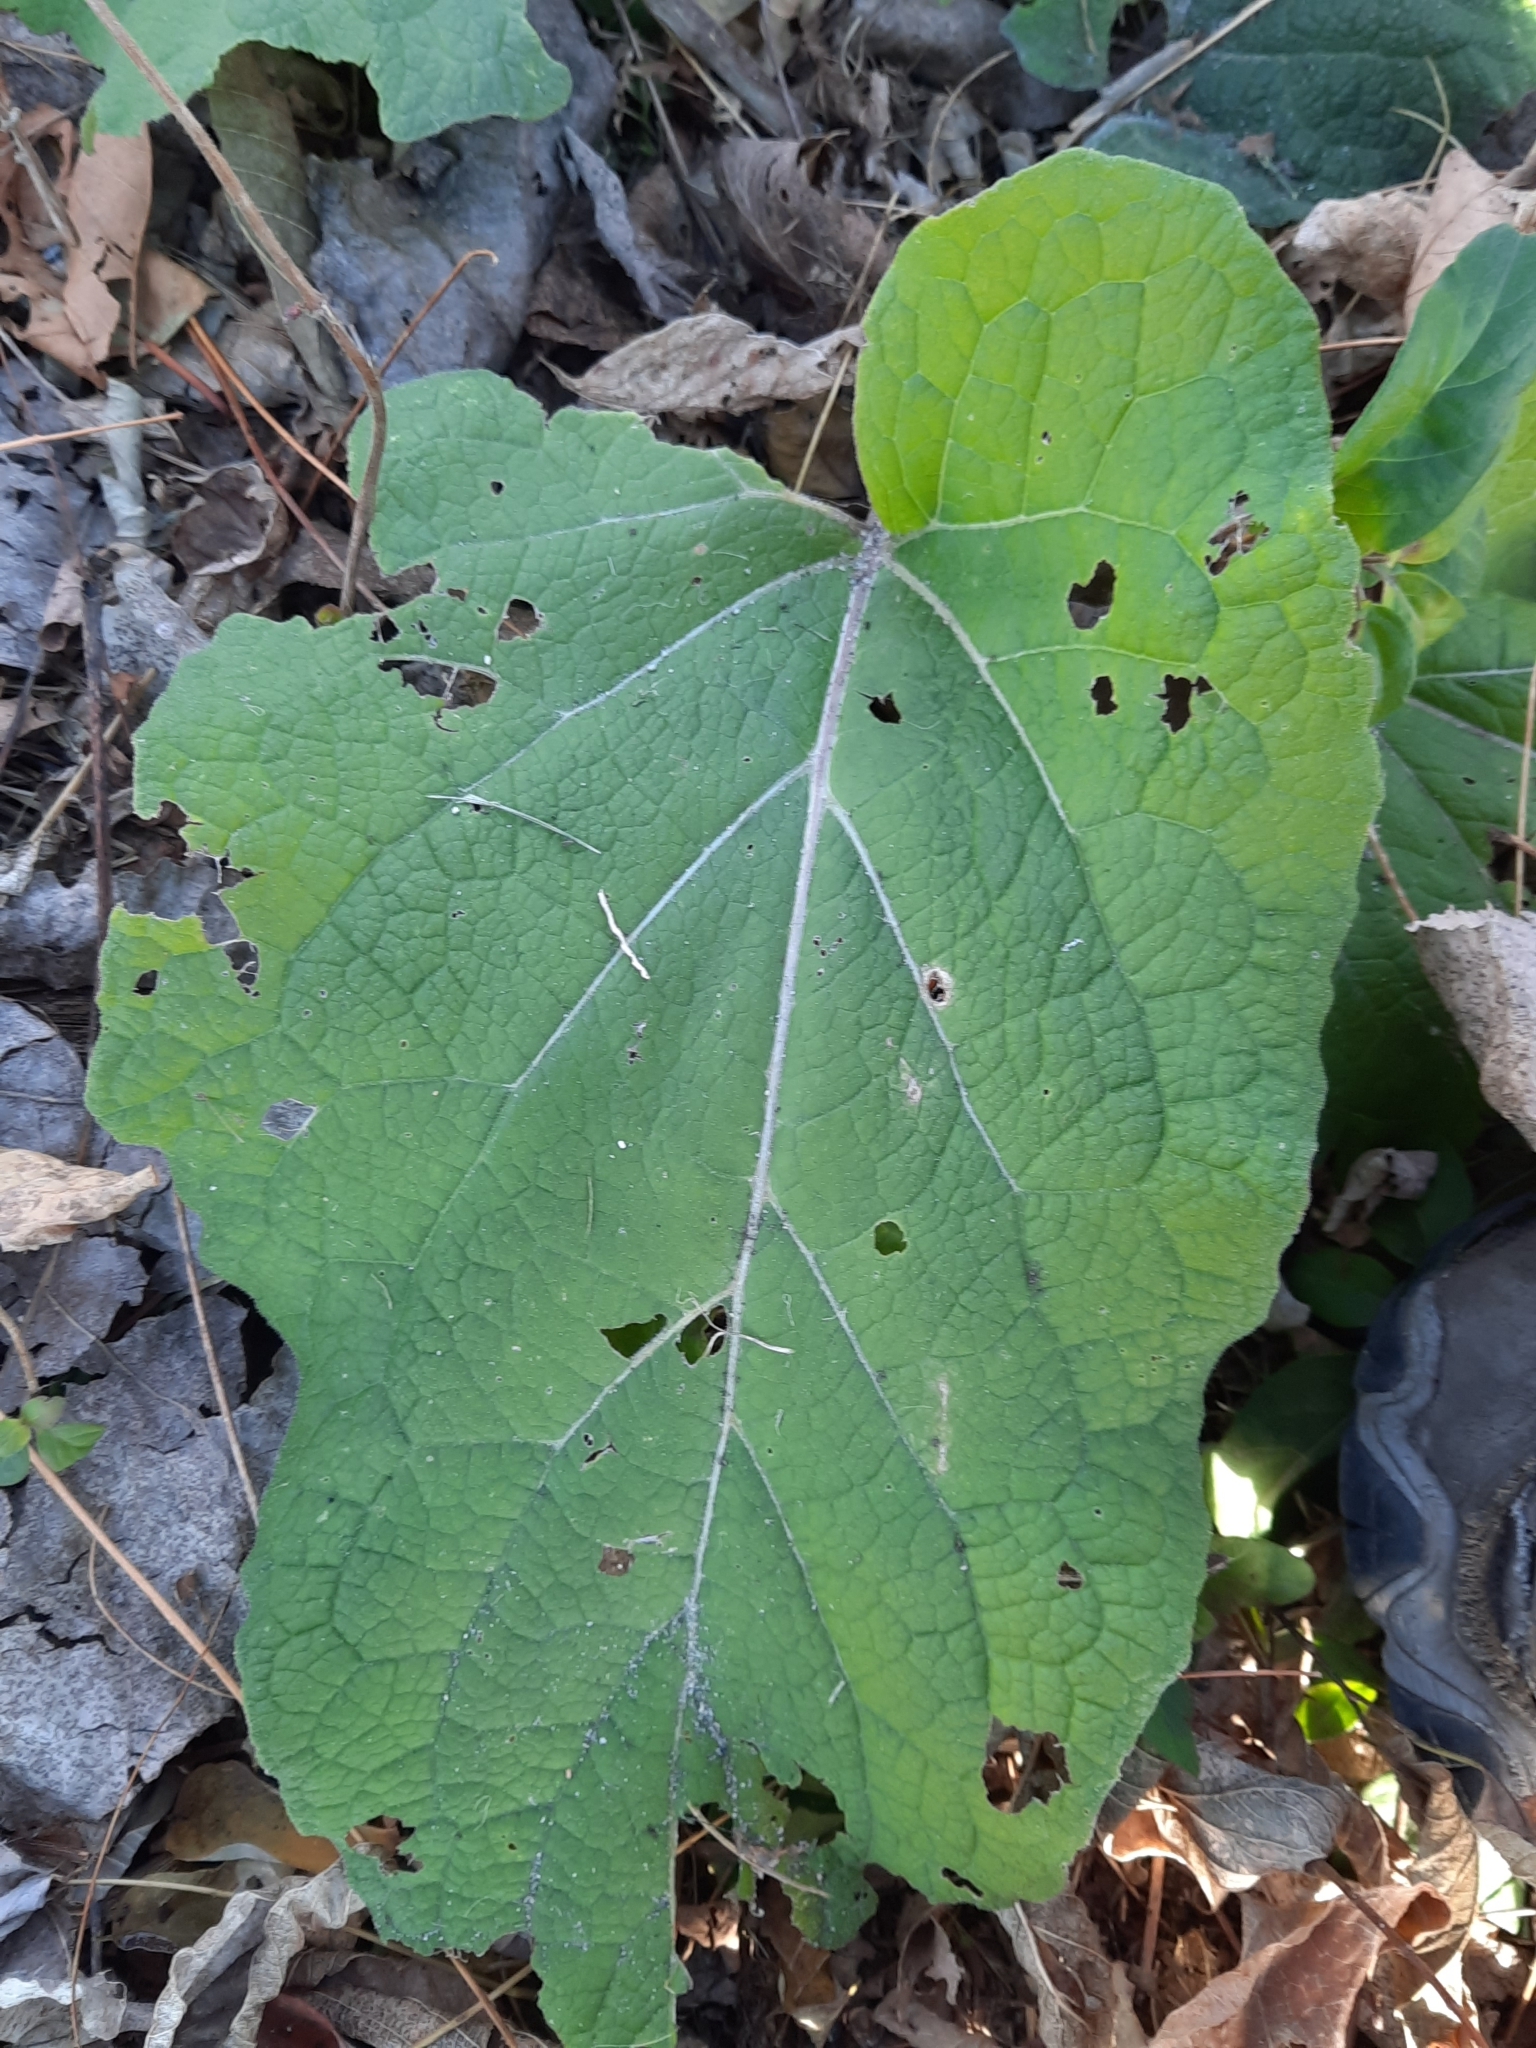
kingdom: Plantae
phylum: Tracheophyta
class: Magnoliopsida
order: Asterales
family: Asteraceae
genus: Arctium
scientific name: Arctium
